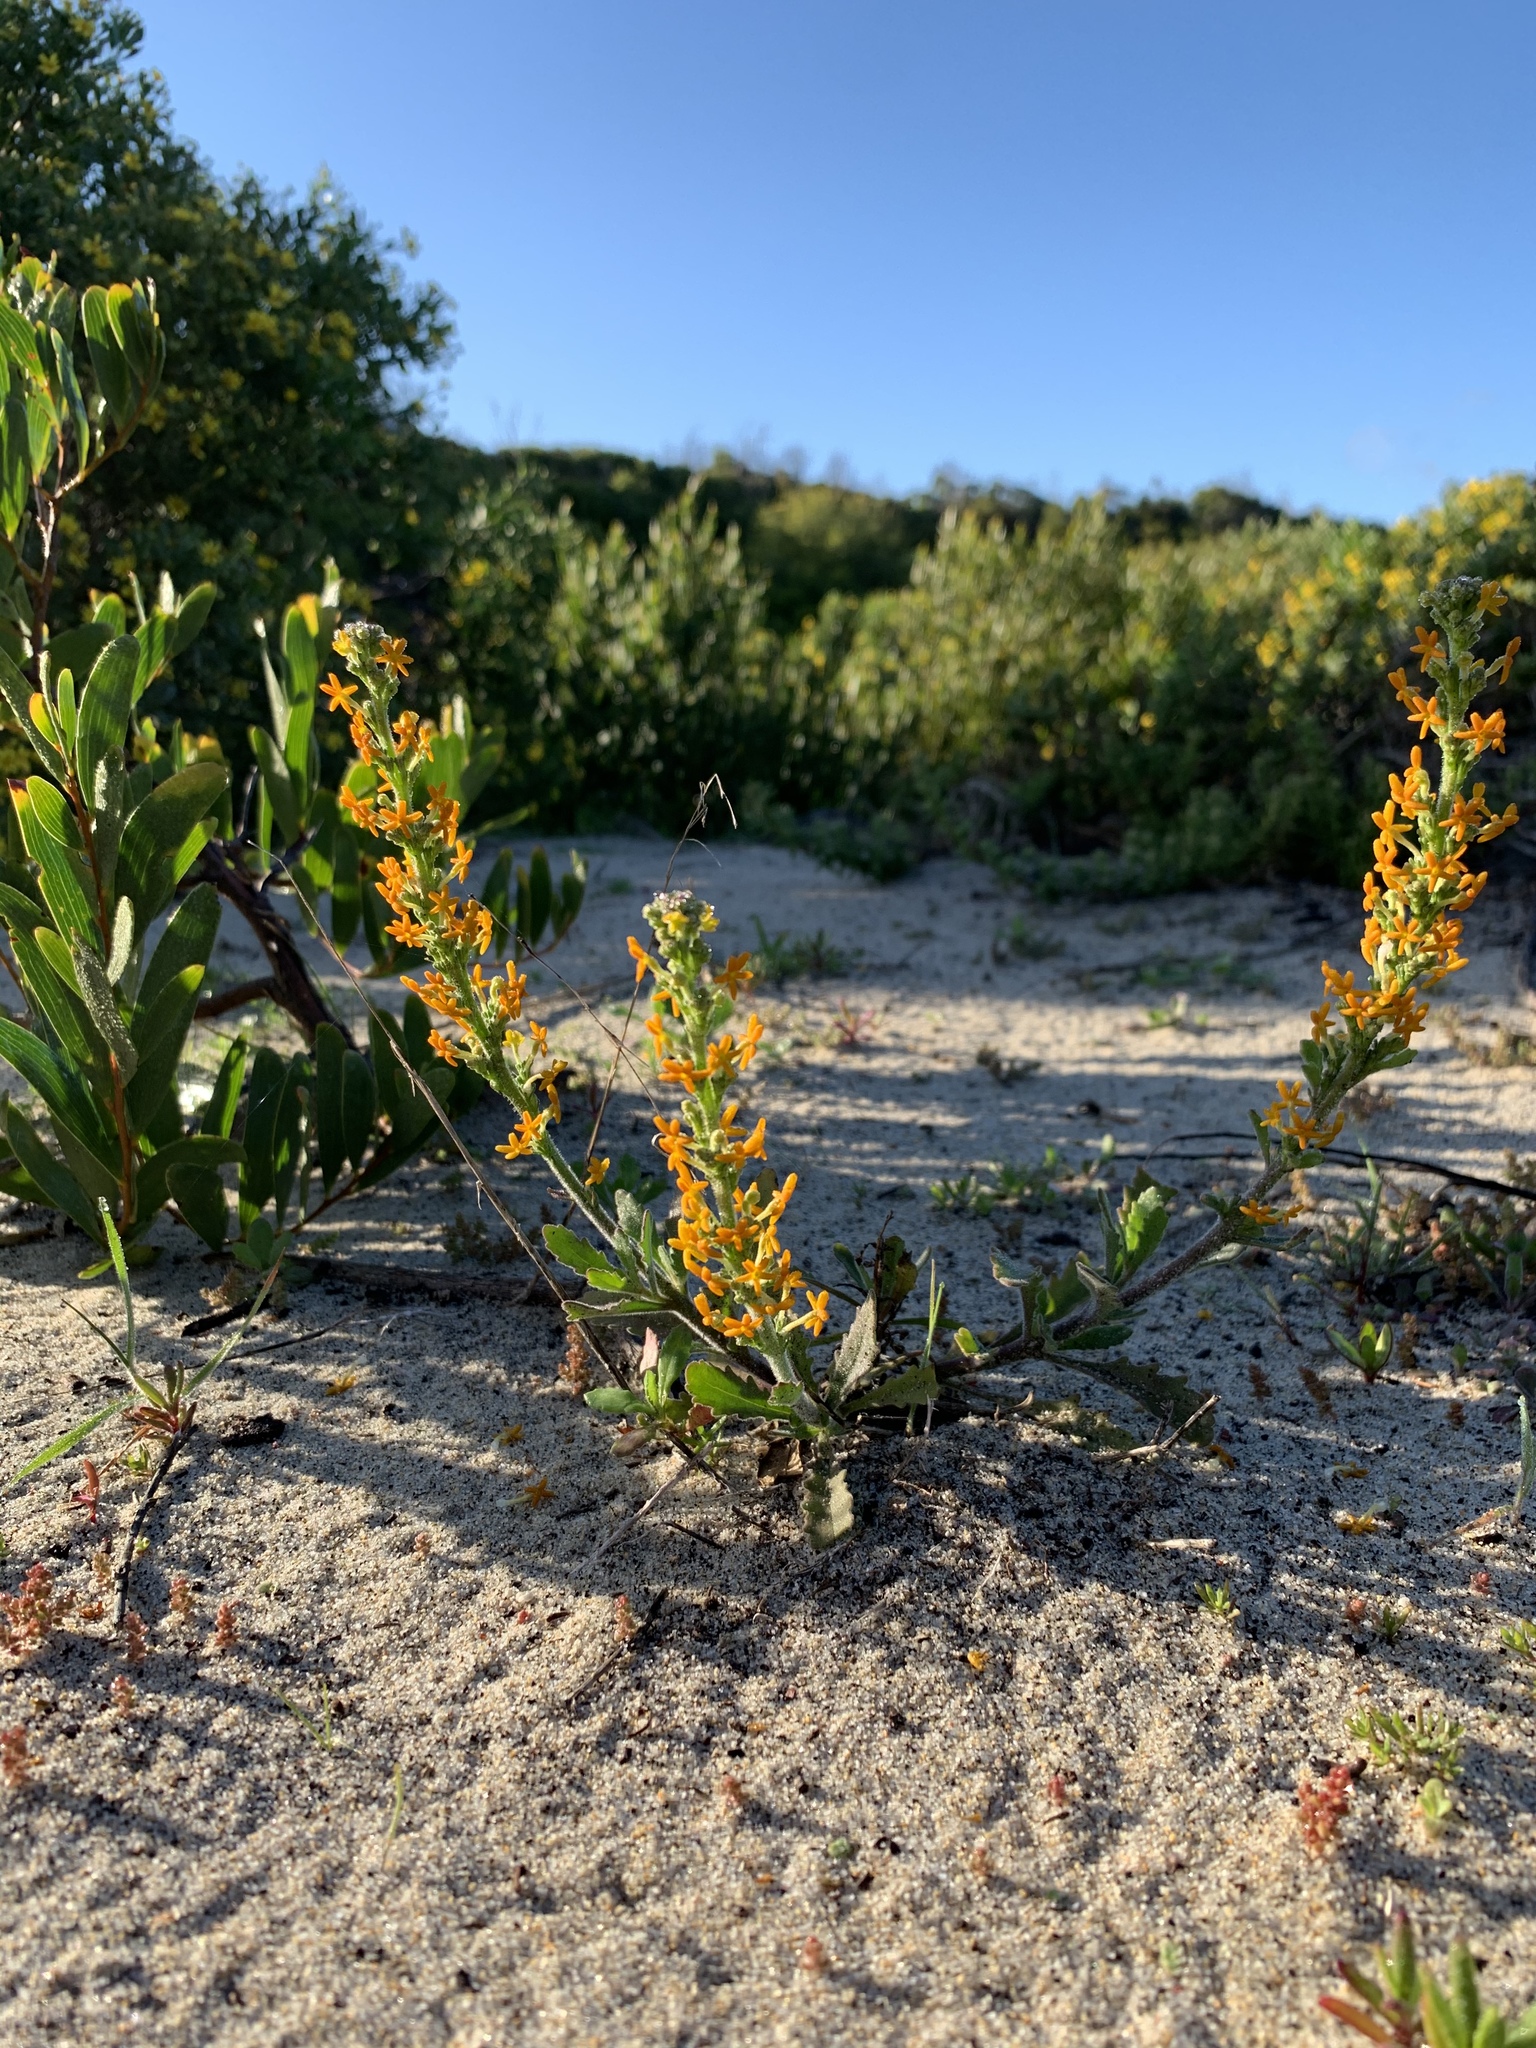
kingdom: Plantae
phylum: Tracheophyta
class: Magnoliopsida
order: Lamiales
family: Scrophulariaceae
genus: Manulea
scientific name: Manulea tomentosa
